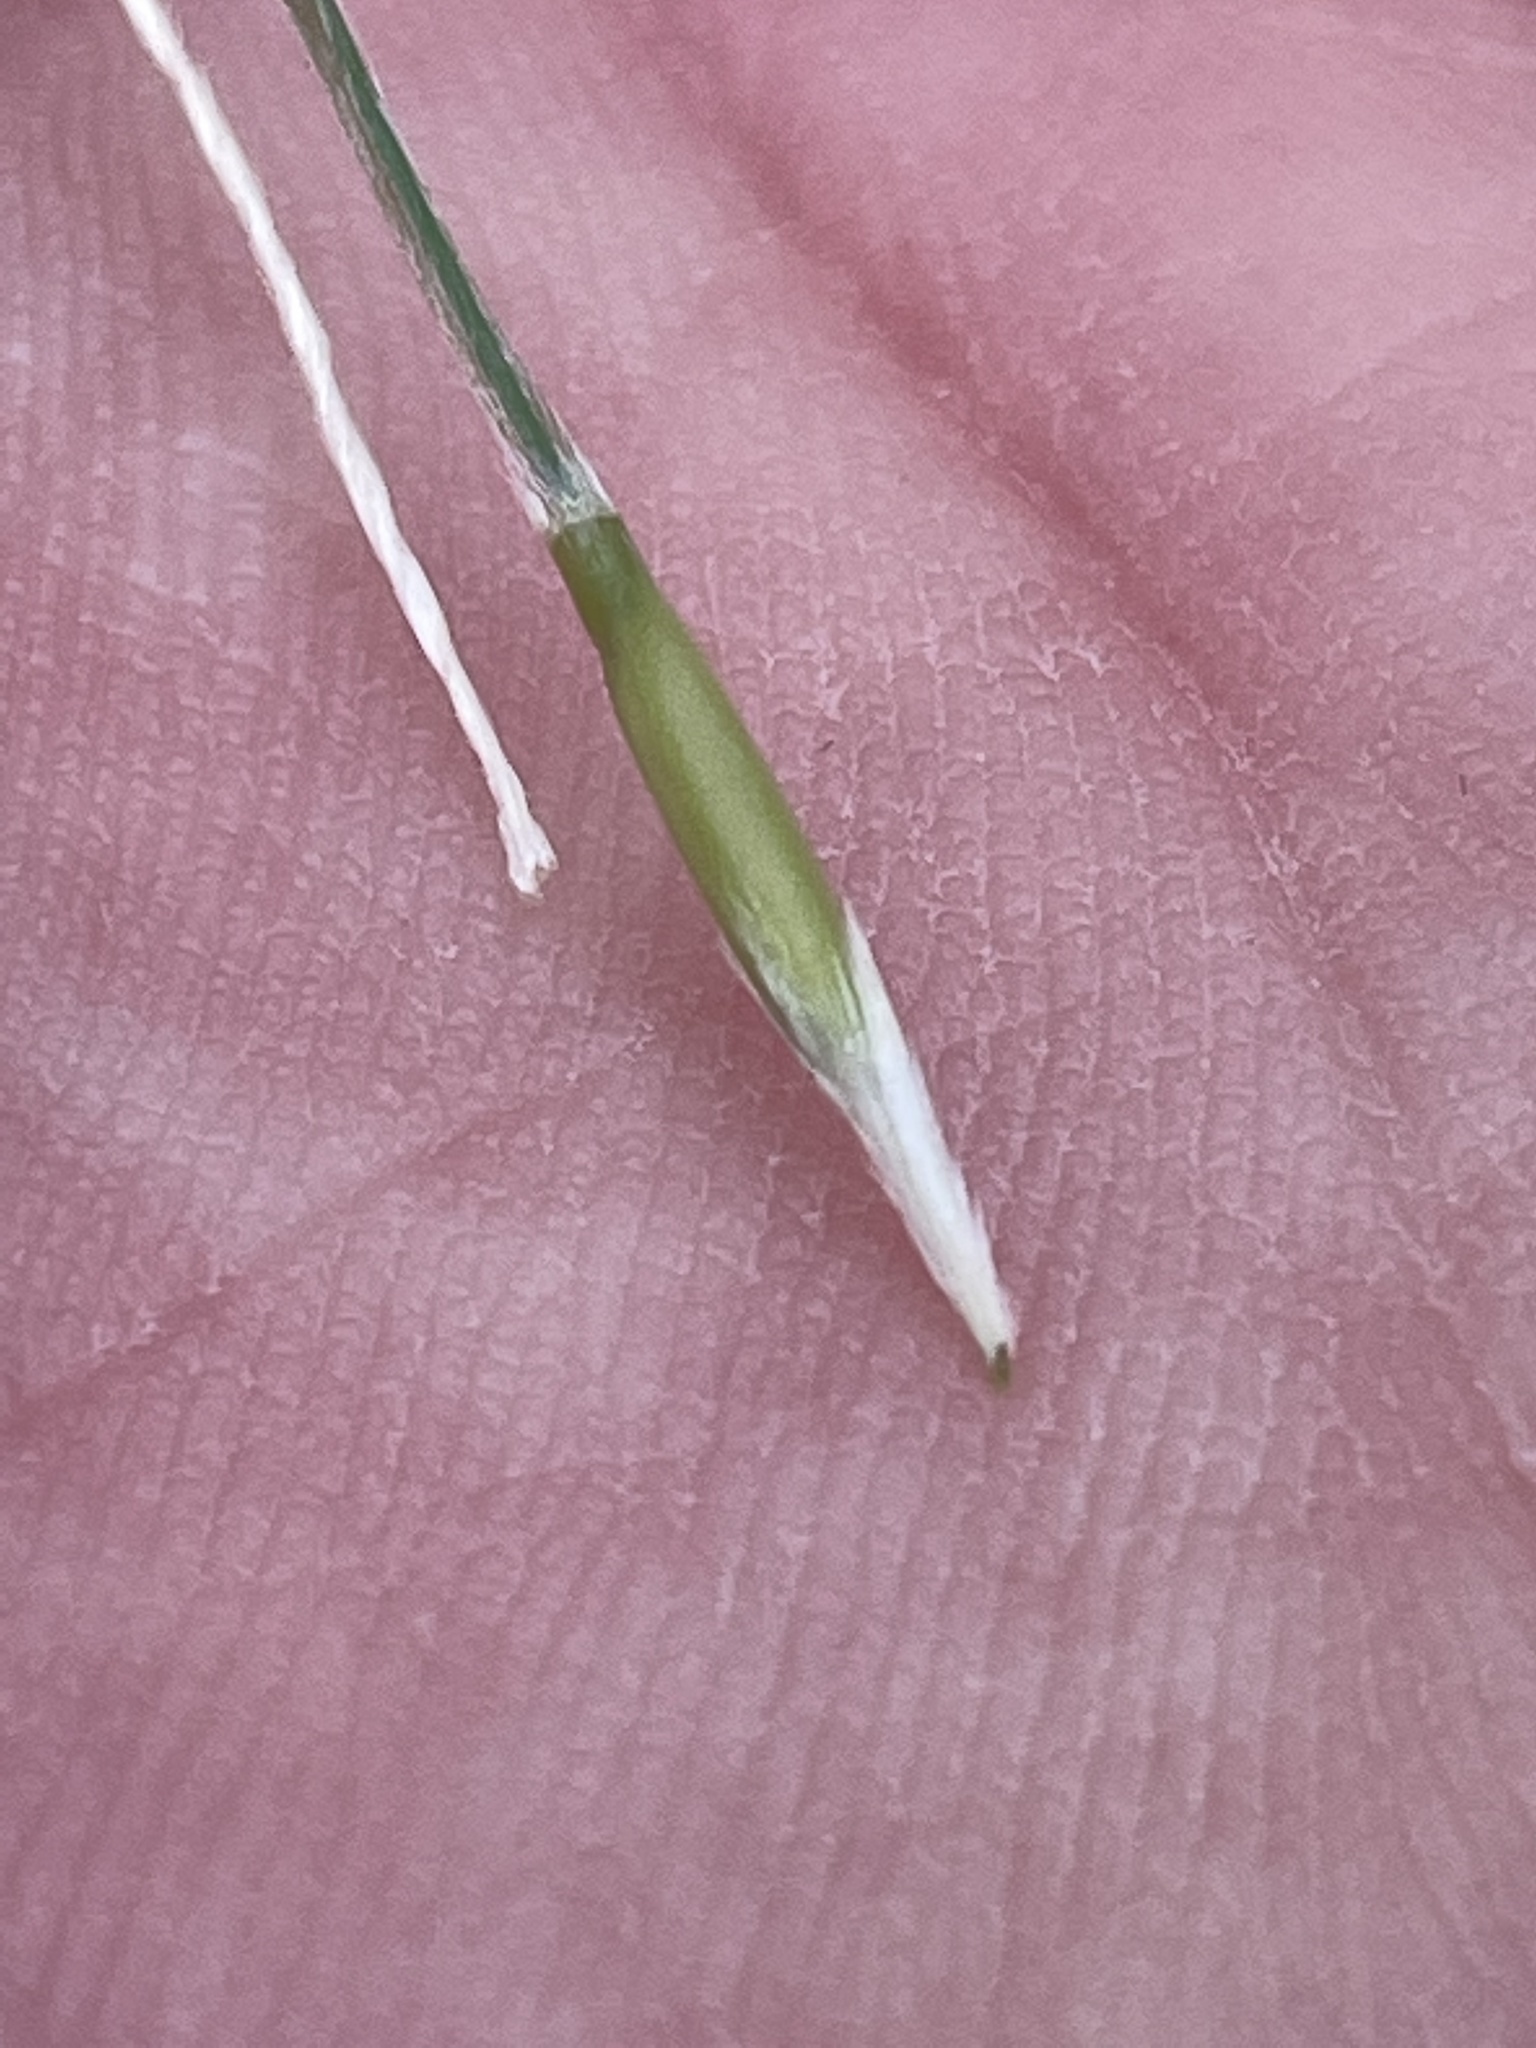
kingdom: Plantae
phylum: Tracheophyta
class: Liliopsida
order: Poales
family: Poaceae
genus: Nassella
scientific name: Nassella leucotricha
